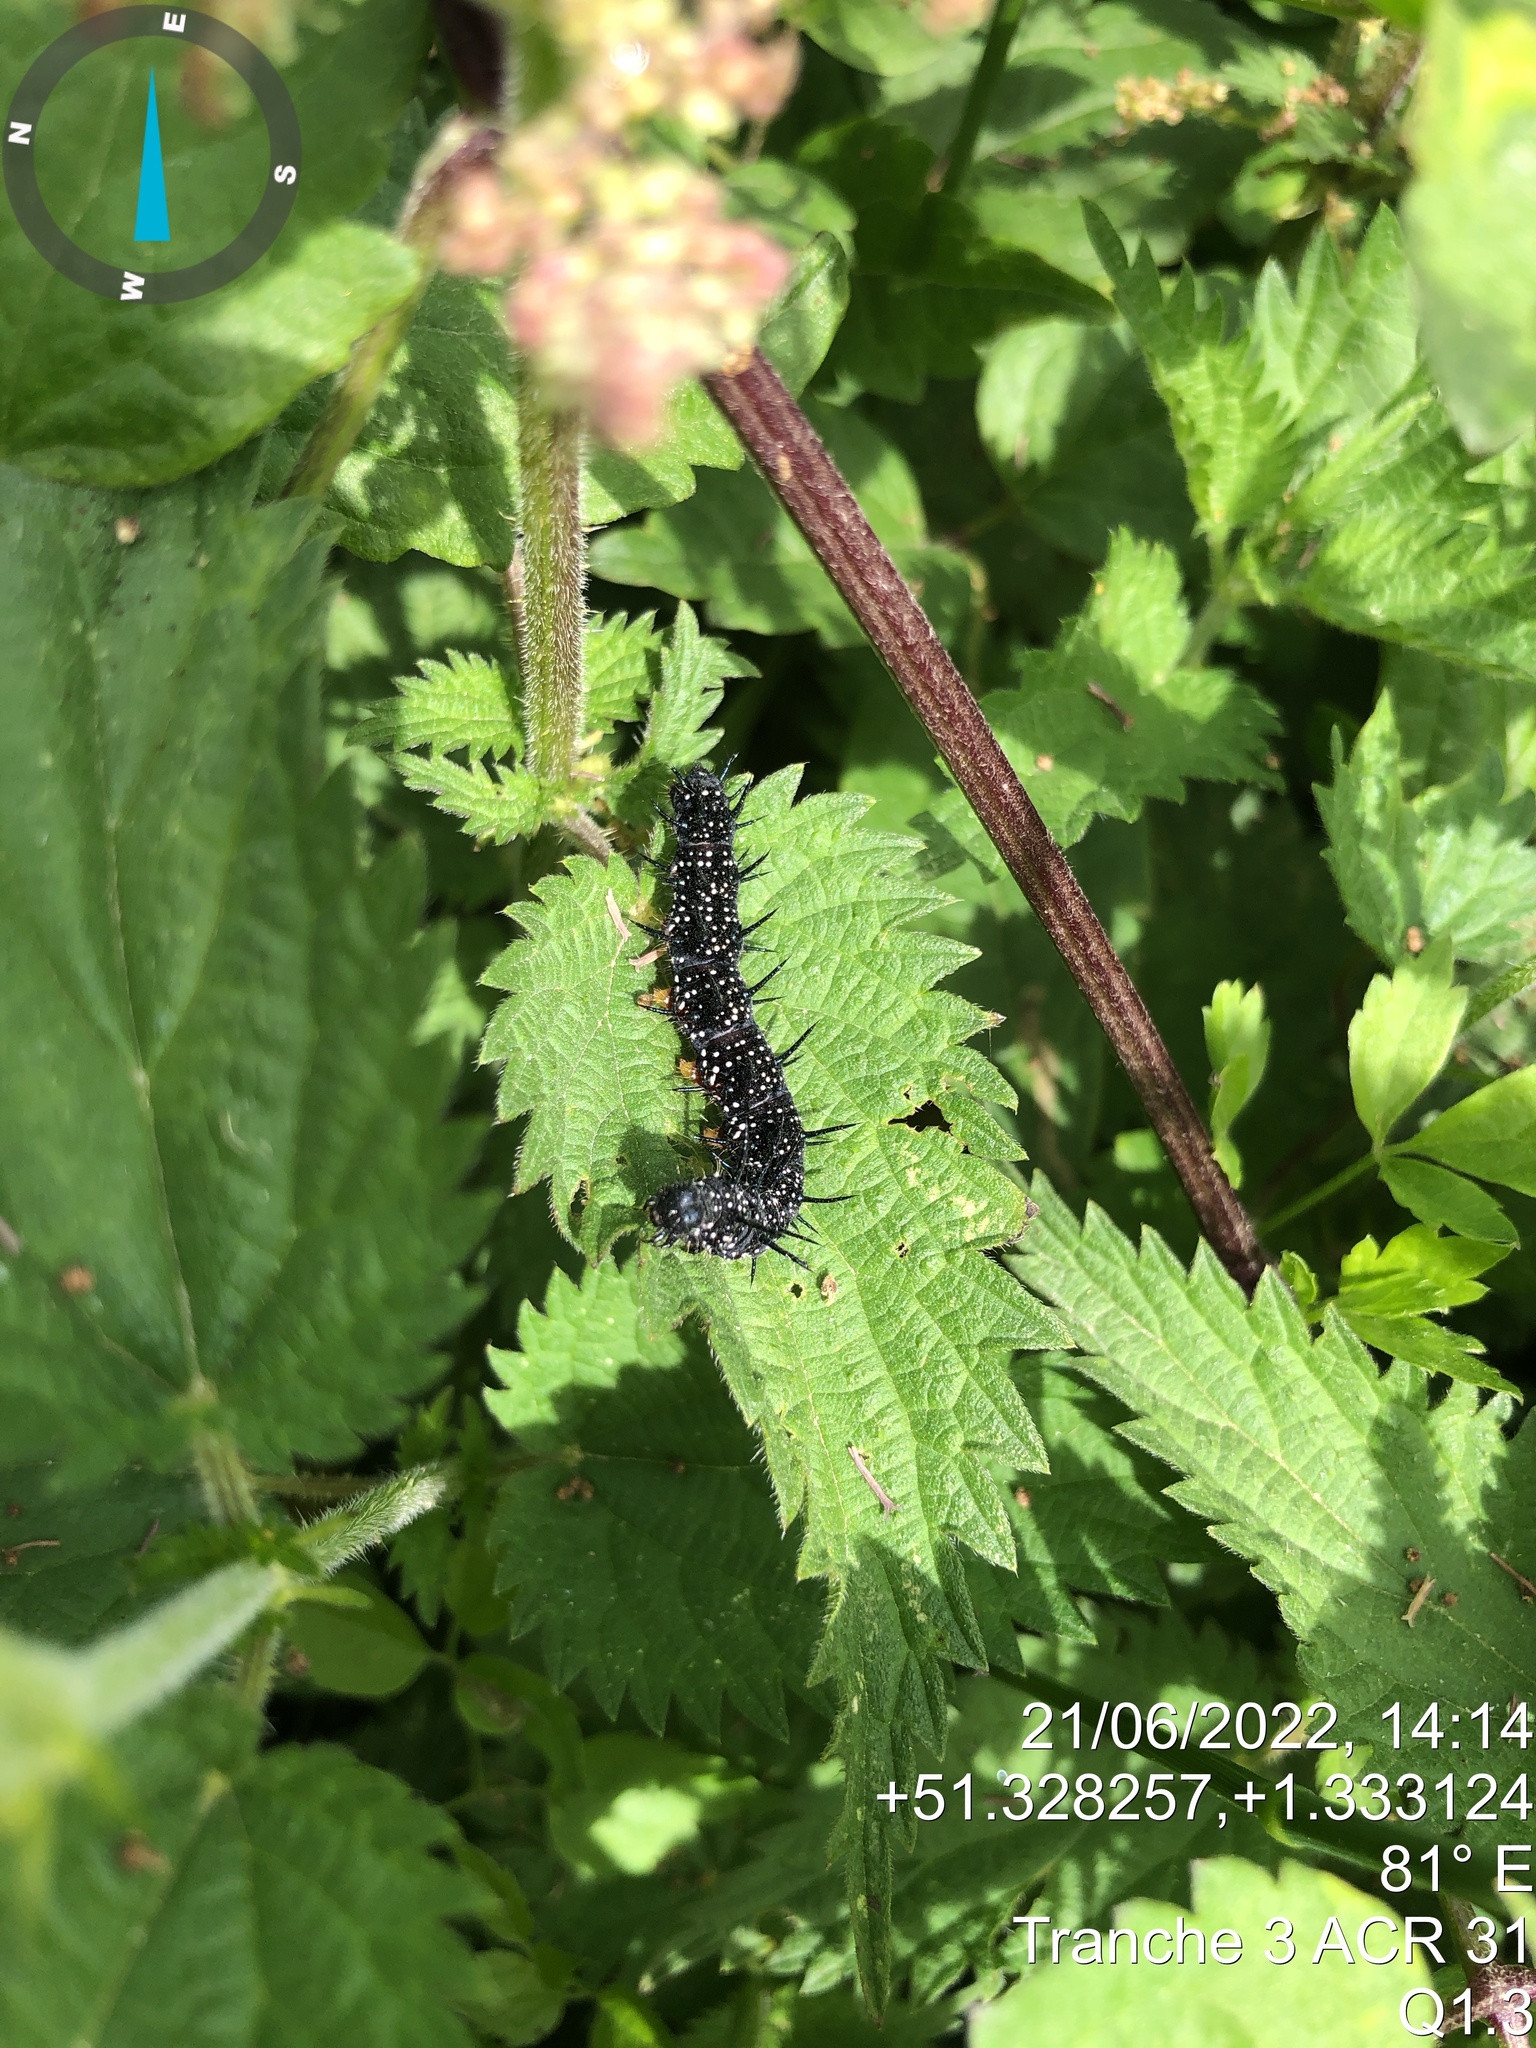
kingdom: Animalia
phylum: Arthropoda
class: Insecta
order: Lepidoptera
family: Nymphalidae
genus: Aglais
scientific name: Aglais io
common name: Peacock
